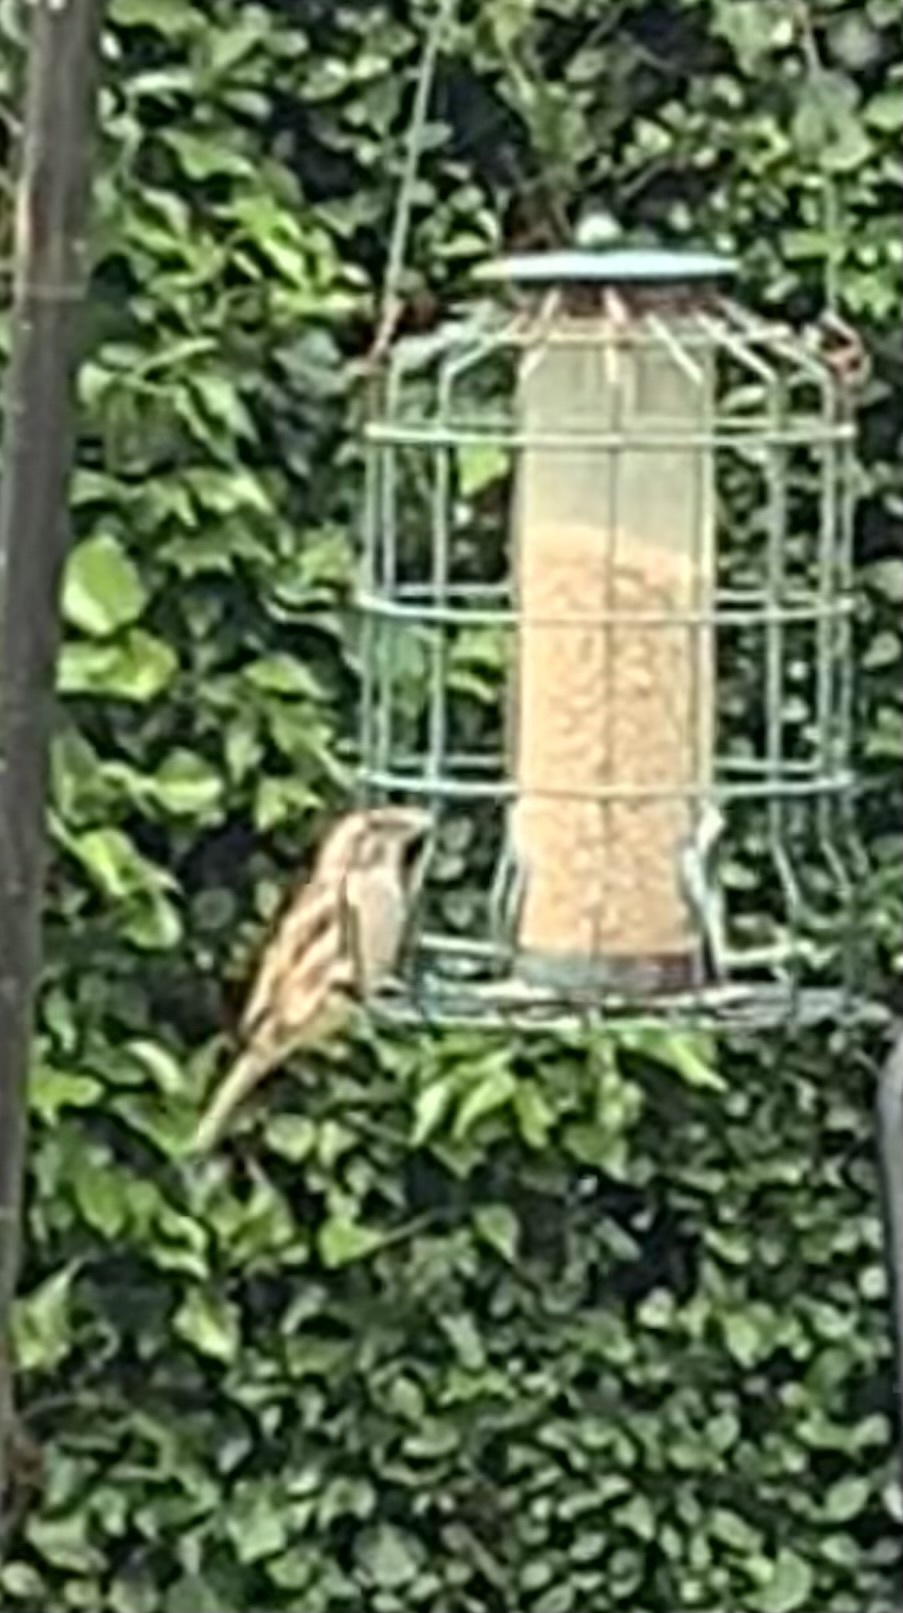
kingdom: Animalia
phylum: Chordata
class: Aves
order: Passeriformes
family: Passeridae
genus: Passer
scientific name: Passer domesticus
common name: House sparrow
